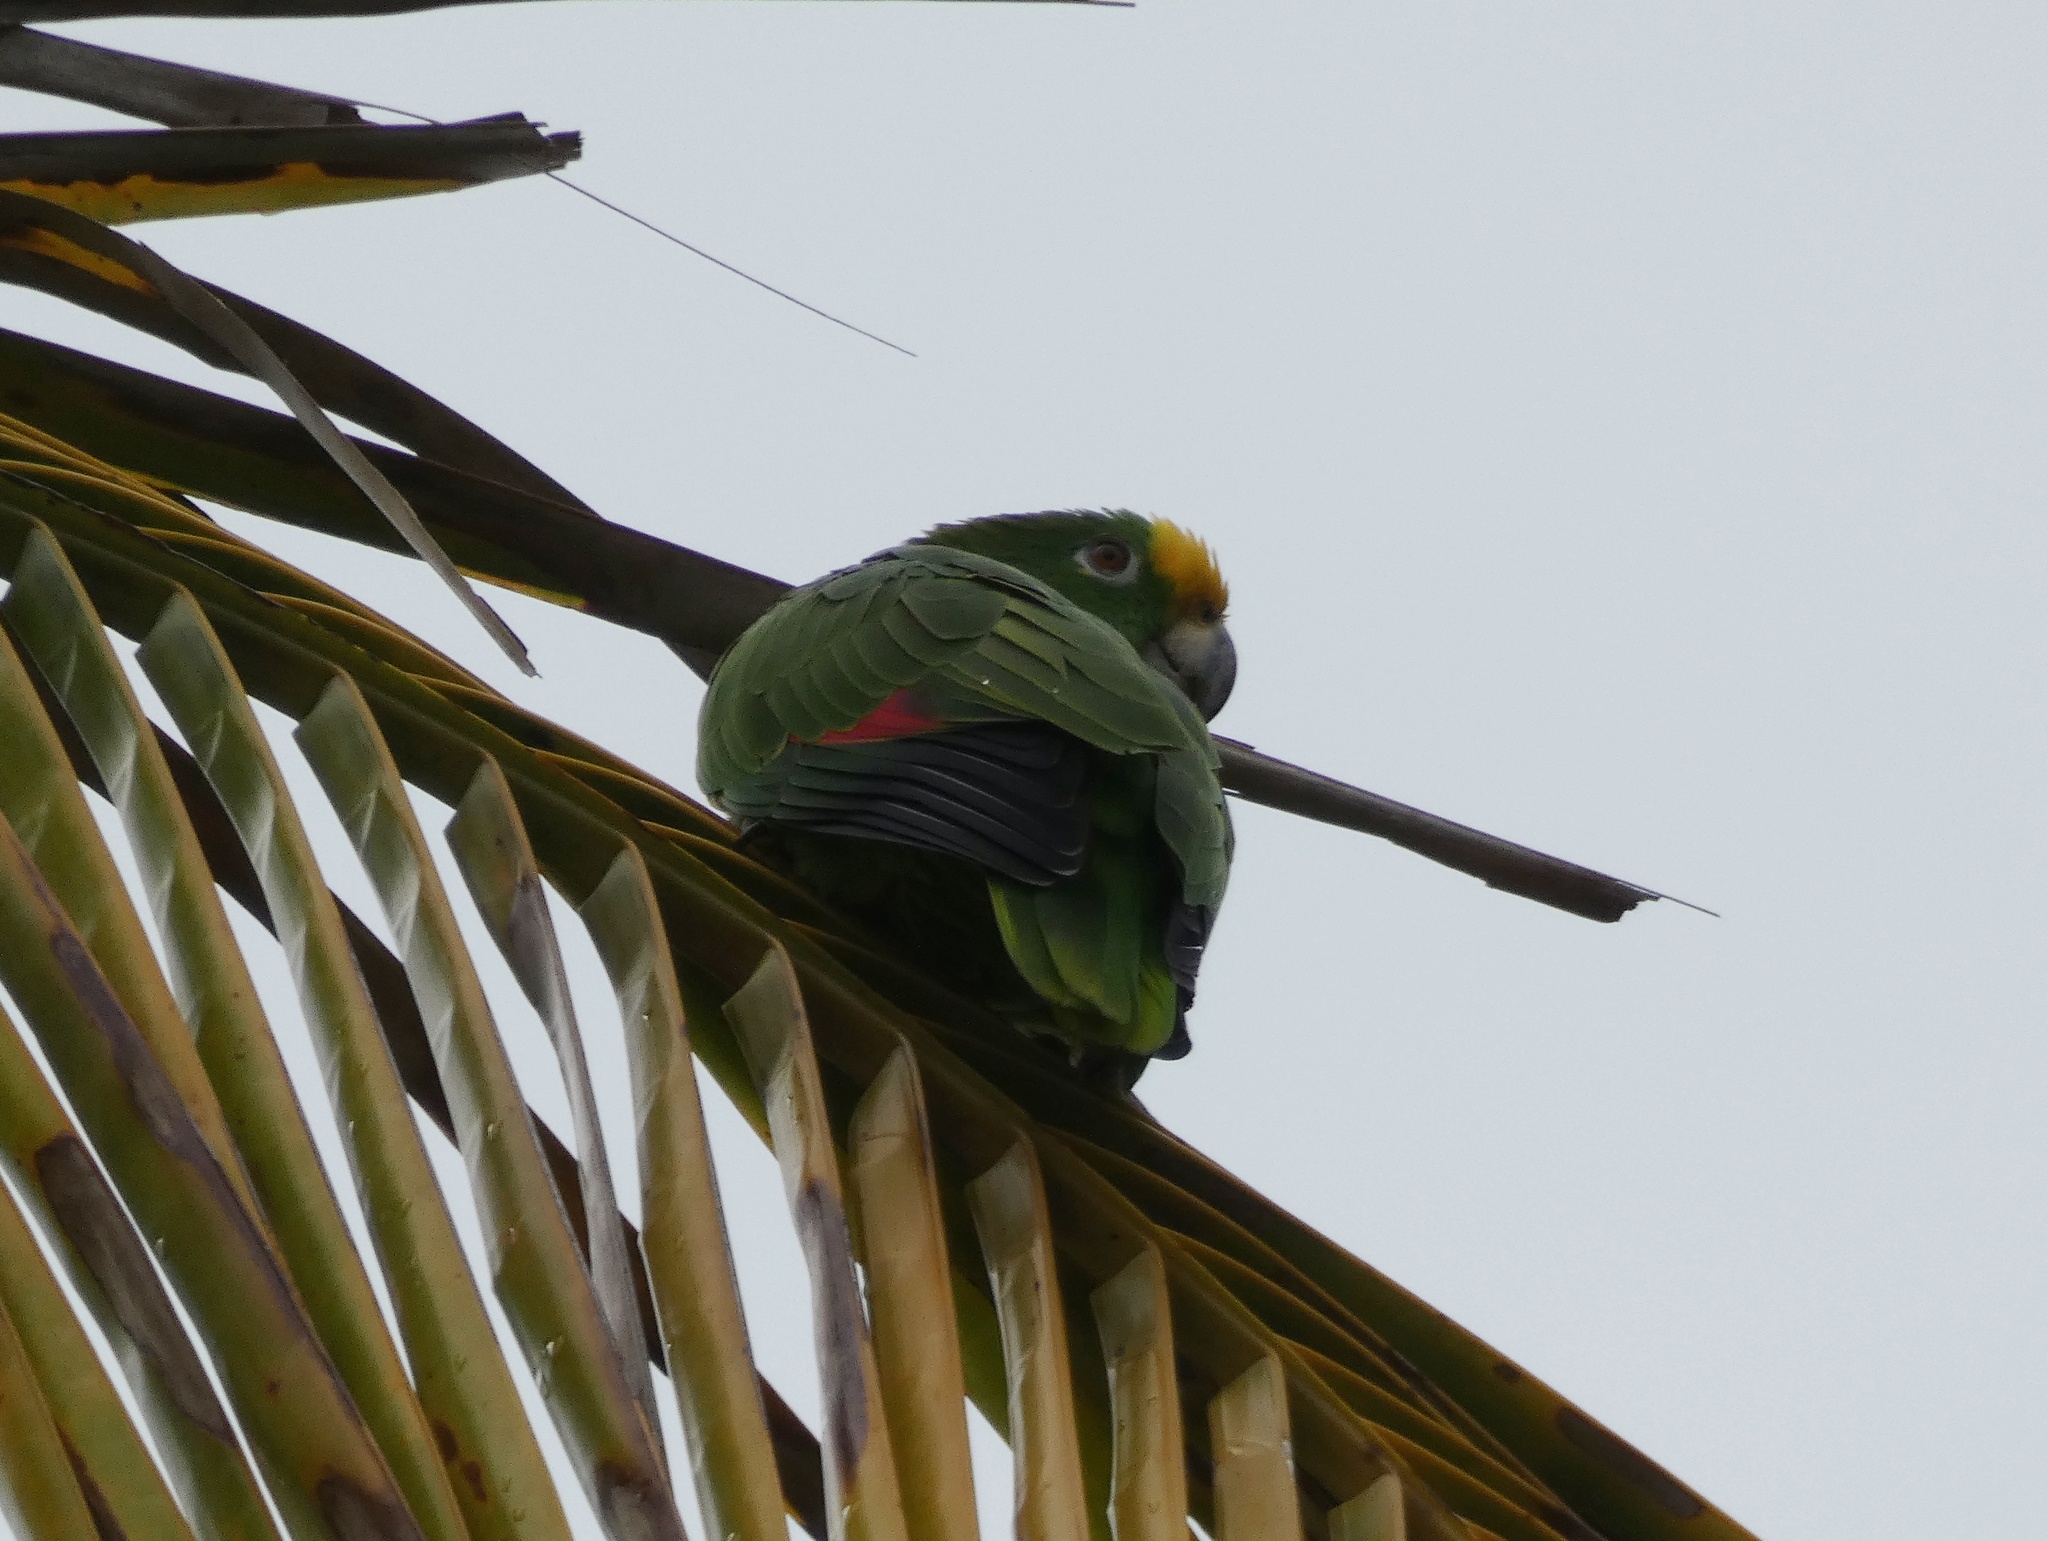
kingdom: Animalia
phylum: Chordata
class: Aves
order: Psittaciformes
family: Psittacidae
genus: Amazona
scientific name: Amazona ochrocephala
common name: Yellow-crowned amazon
